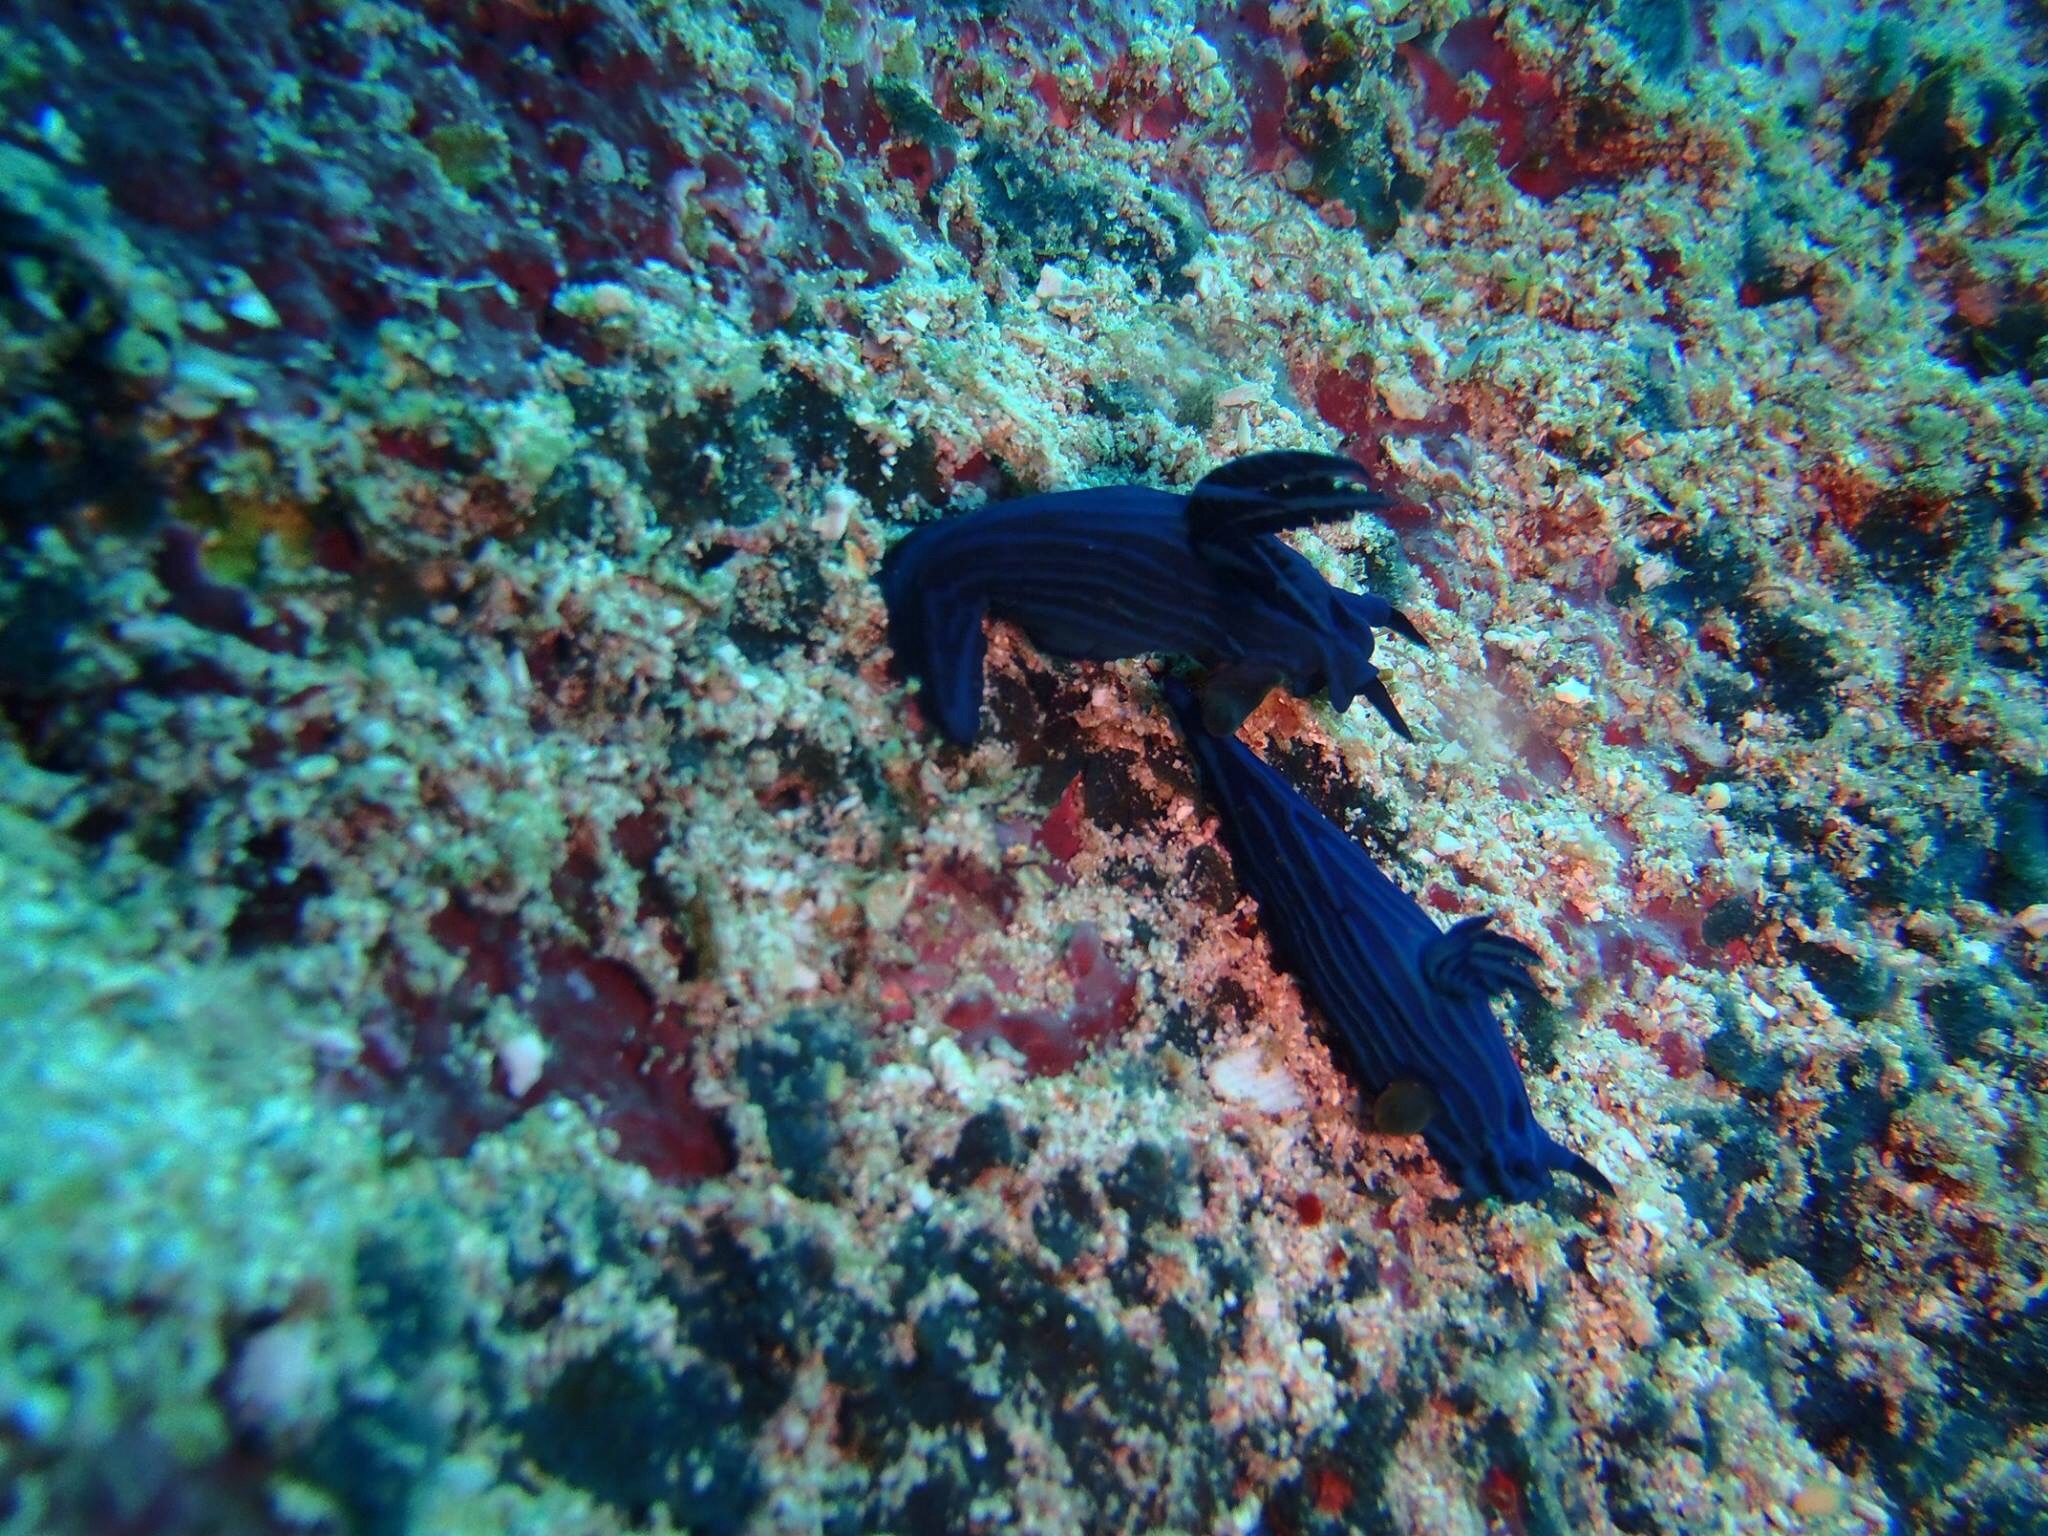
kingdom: Animalia
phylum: Mollusca
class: Gastropoda
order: Nudibranchia
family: Polyceridae
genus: Tambja
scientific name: Tambja mullineri
